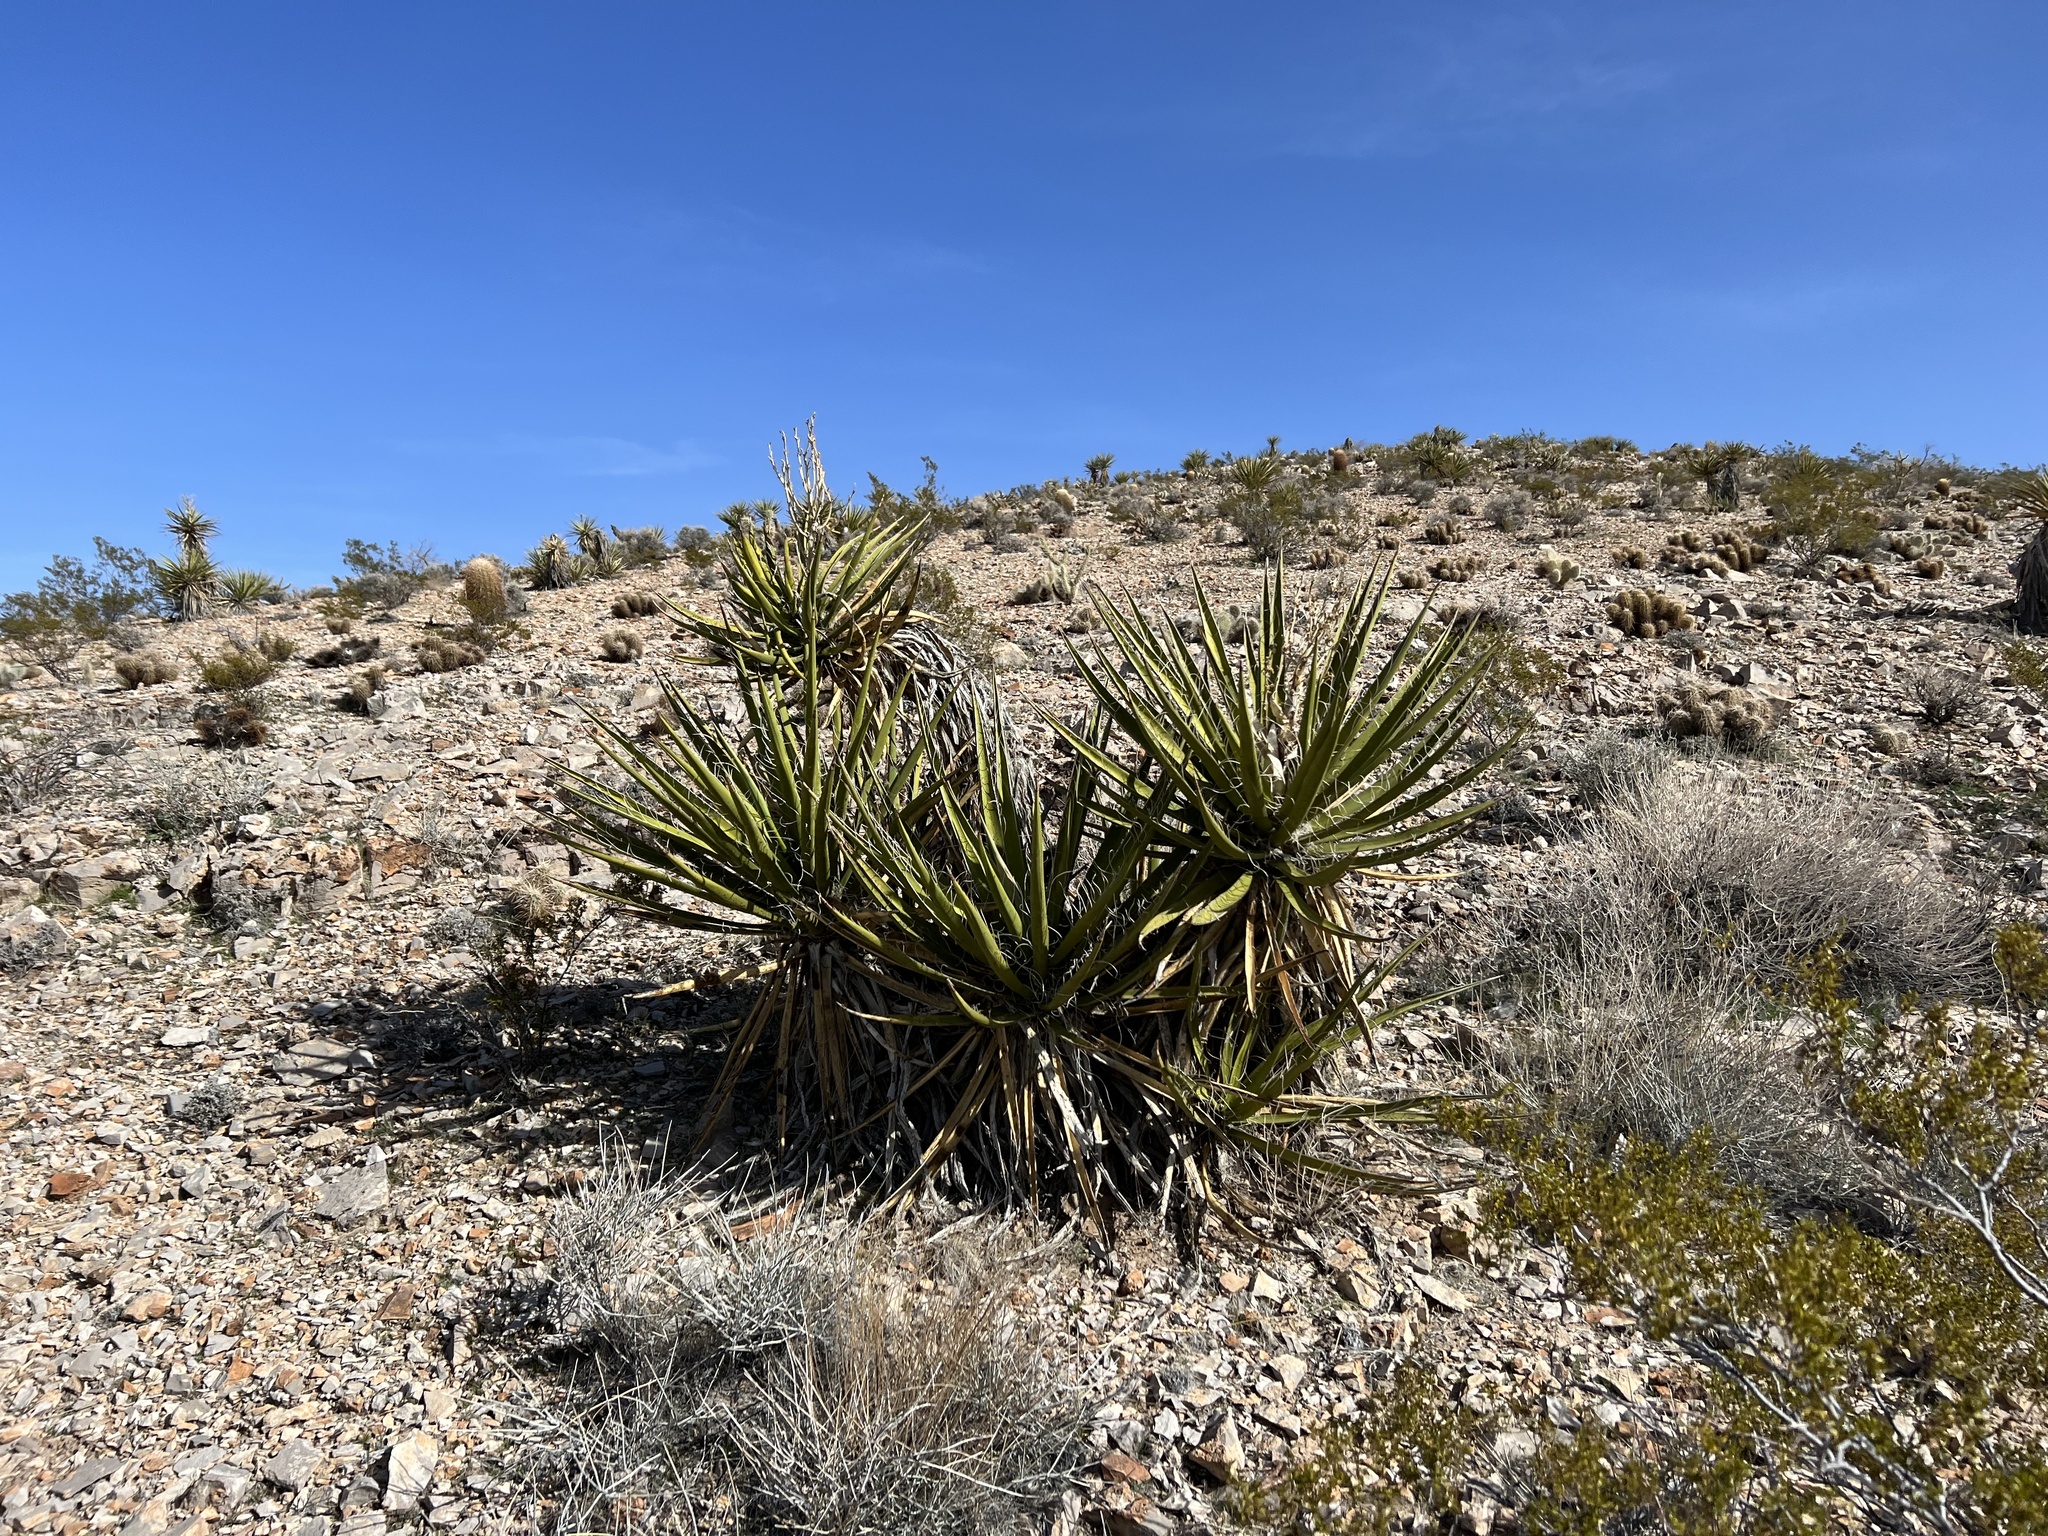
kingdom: Plantae
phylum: Tracheophyta
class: Liliopsida
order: Asparagales
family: Asparagaceae
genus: Yucca
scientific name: Yucca schidigera
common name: Mojave yucca
